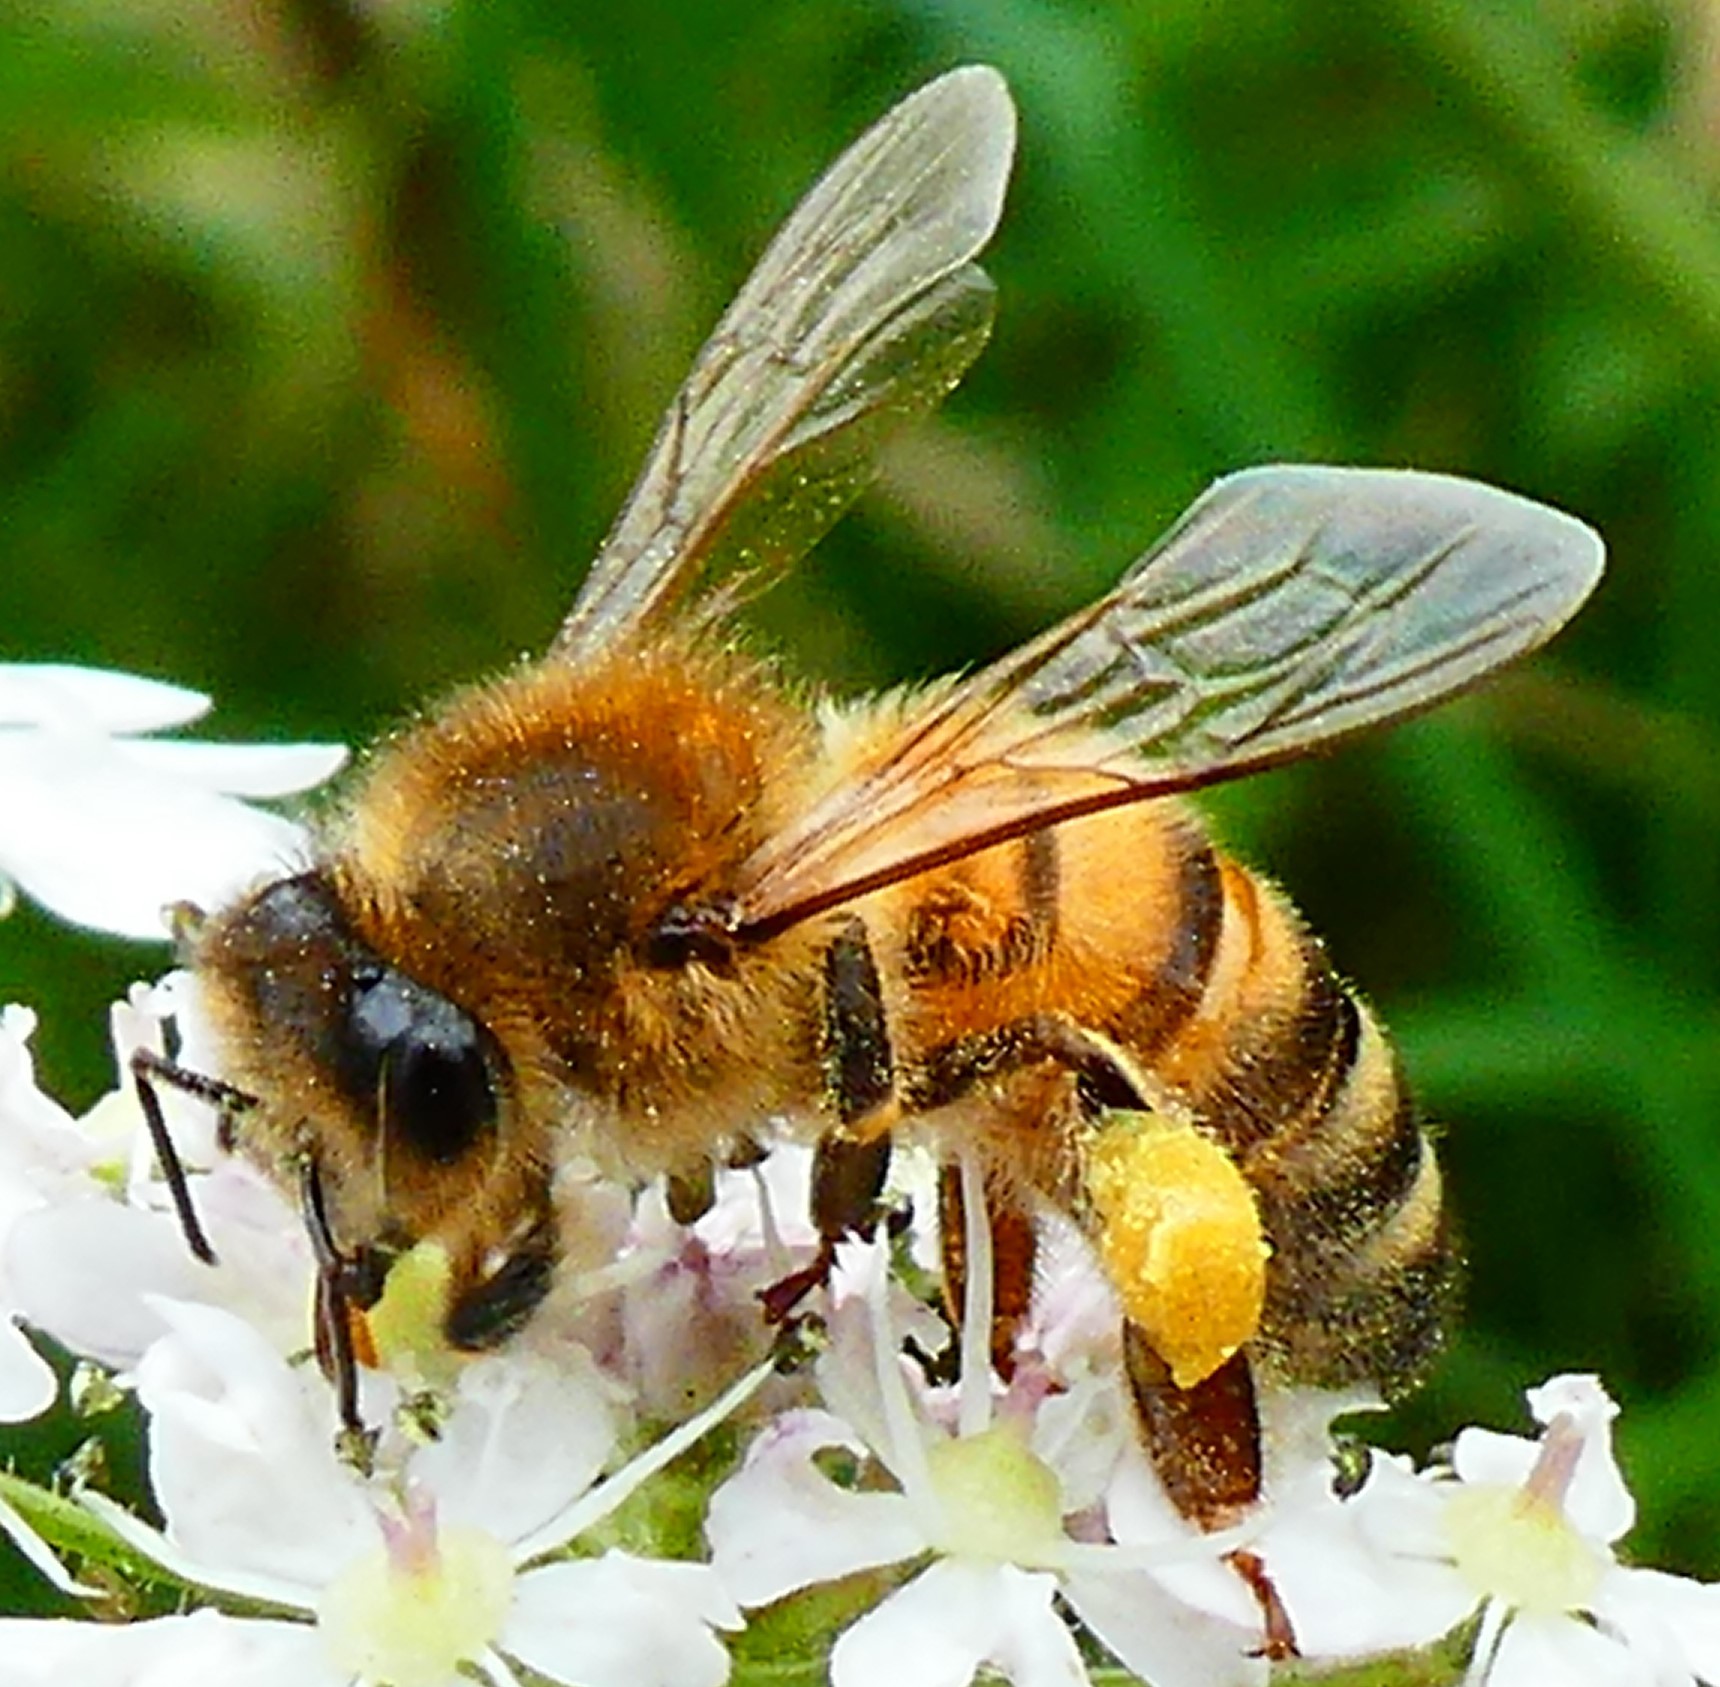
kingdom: Animalia
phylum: Arthropoda
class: Insecta
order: Hymenoptera
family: Apidae
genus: Apis
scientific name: Apis mellifera
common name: Honey bee
